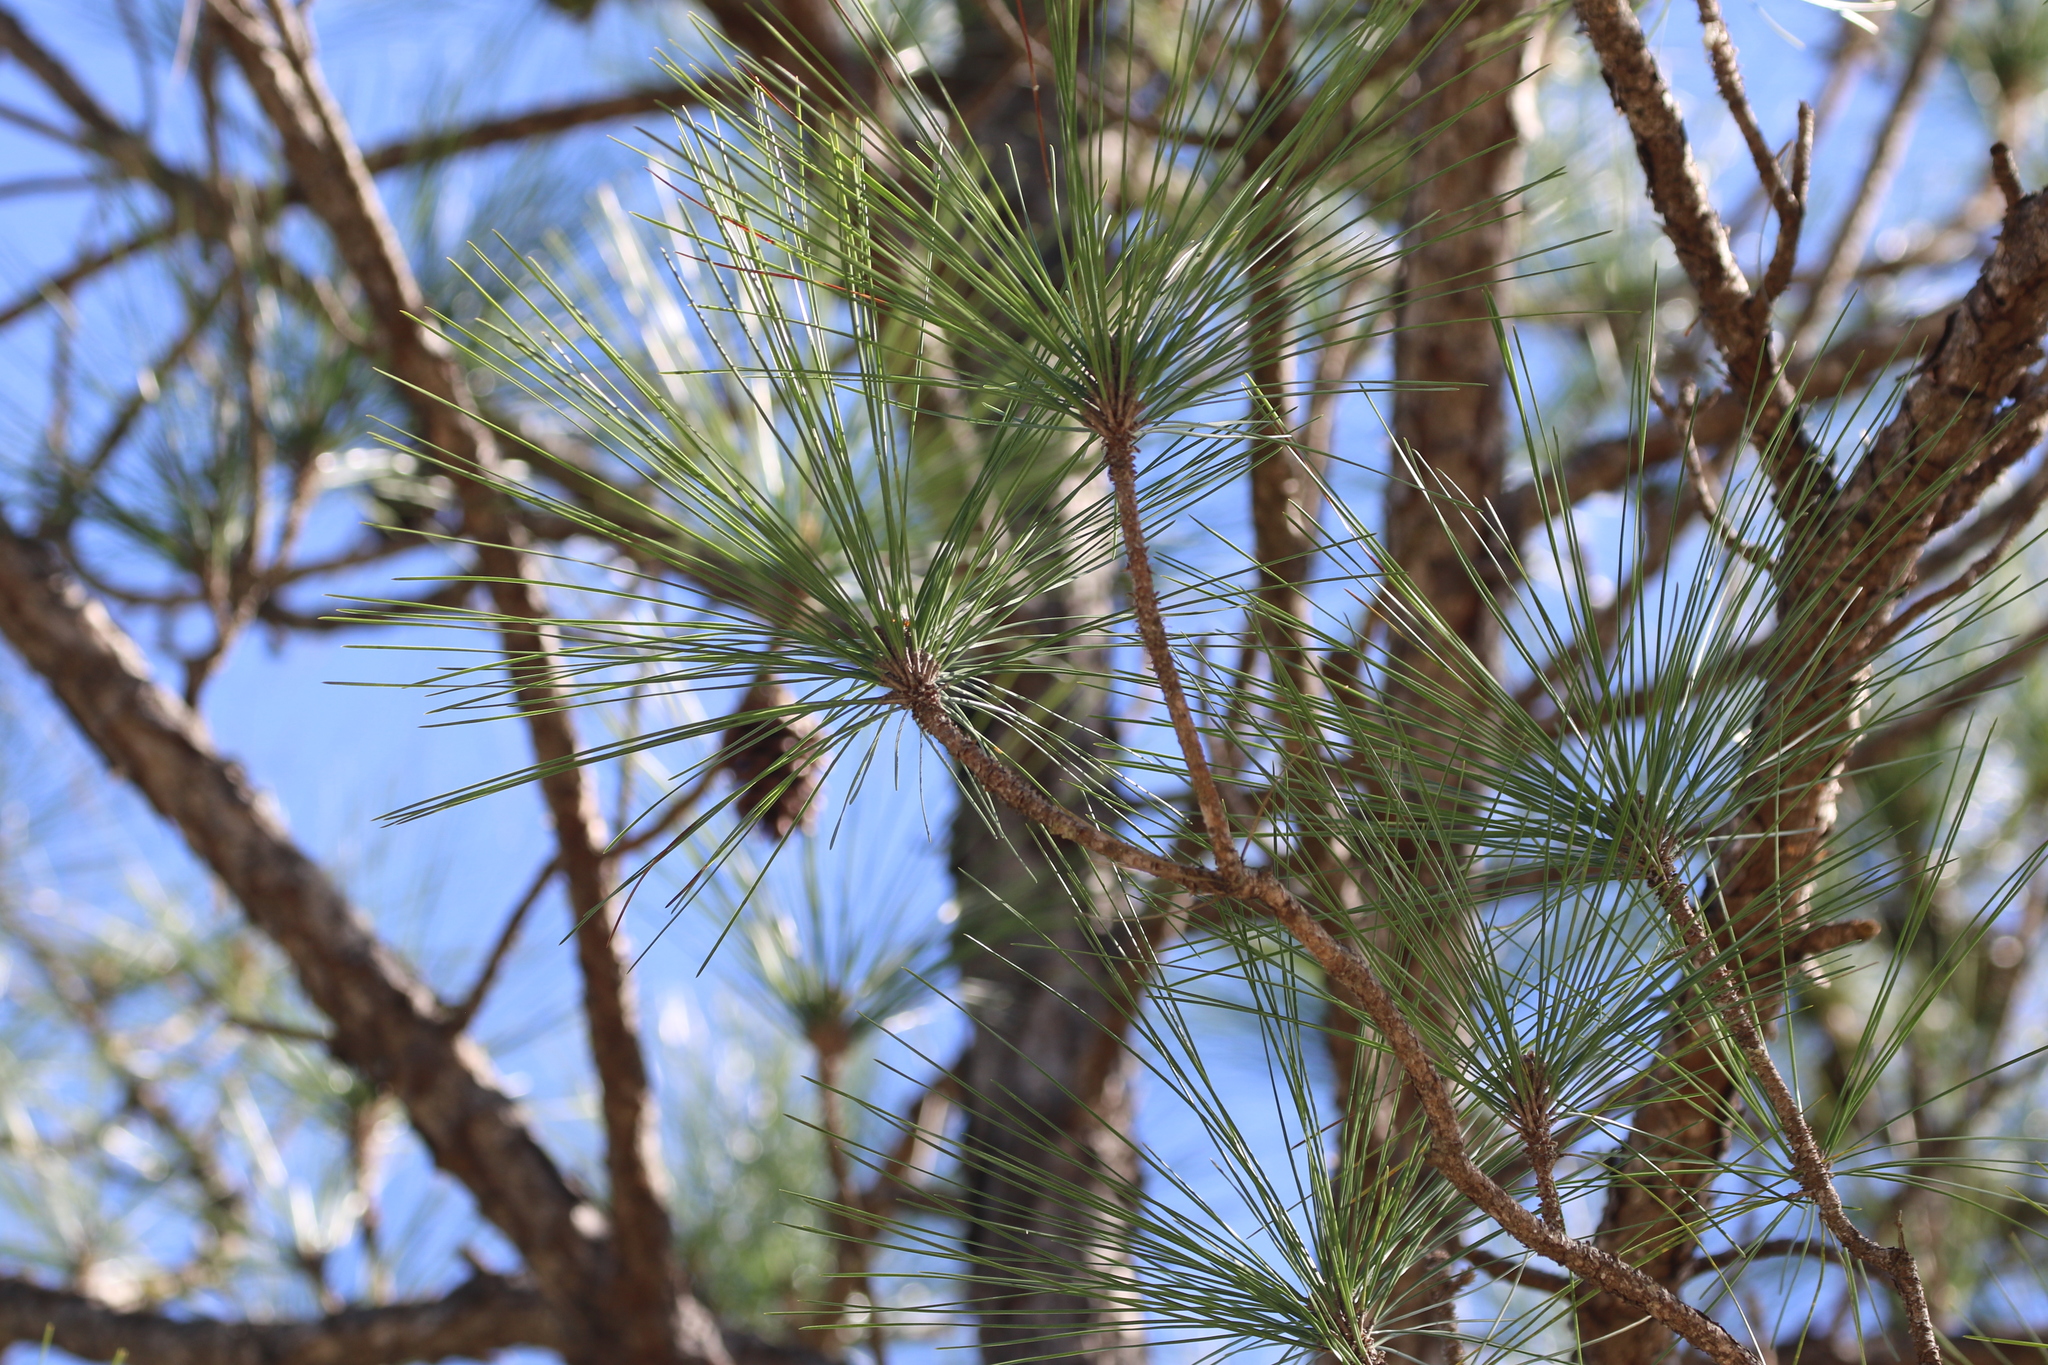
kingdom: Plantae
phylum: Tracheophyta
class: Pinopsida
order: Pinales
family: Pinaceae
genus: Pinus
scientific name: Pinus elliottii
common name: Slash pine
